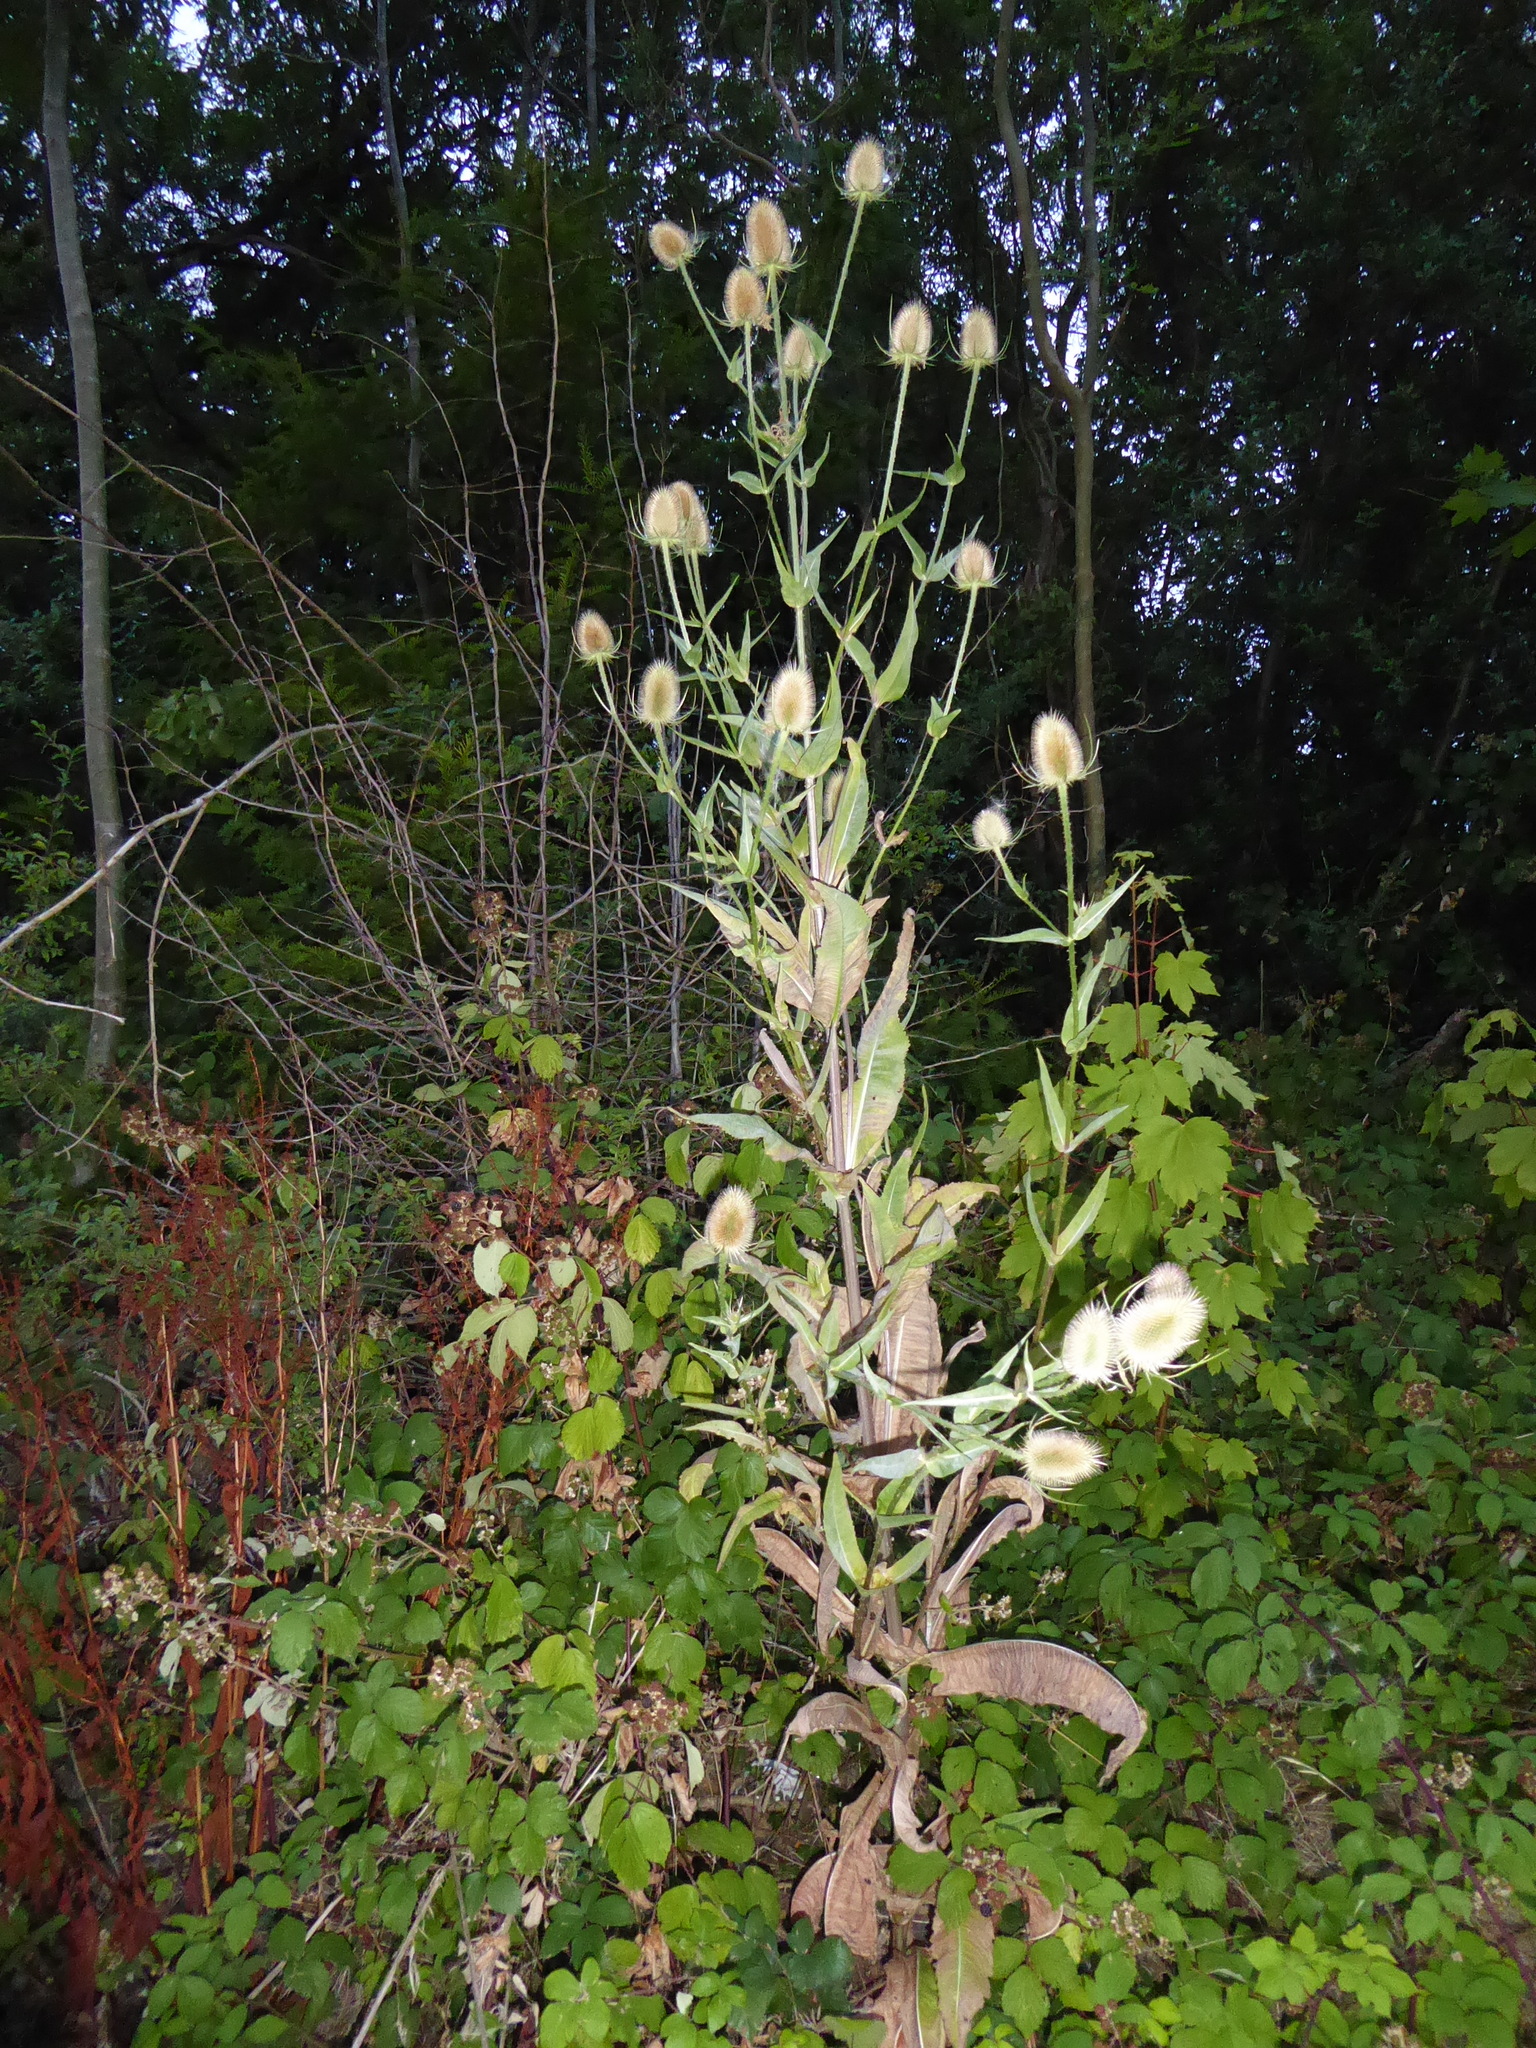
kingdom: Plantae
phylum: Tracheophyta
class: Magnoliopsida
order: Dipsacales
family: Caprifoliaceae
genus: Dipsacus
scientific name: Dipsacus fullonum
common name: Teasel
